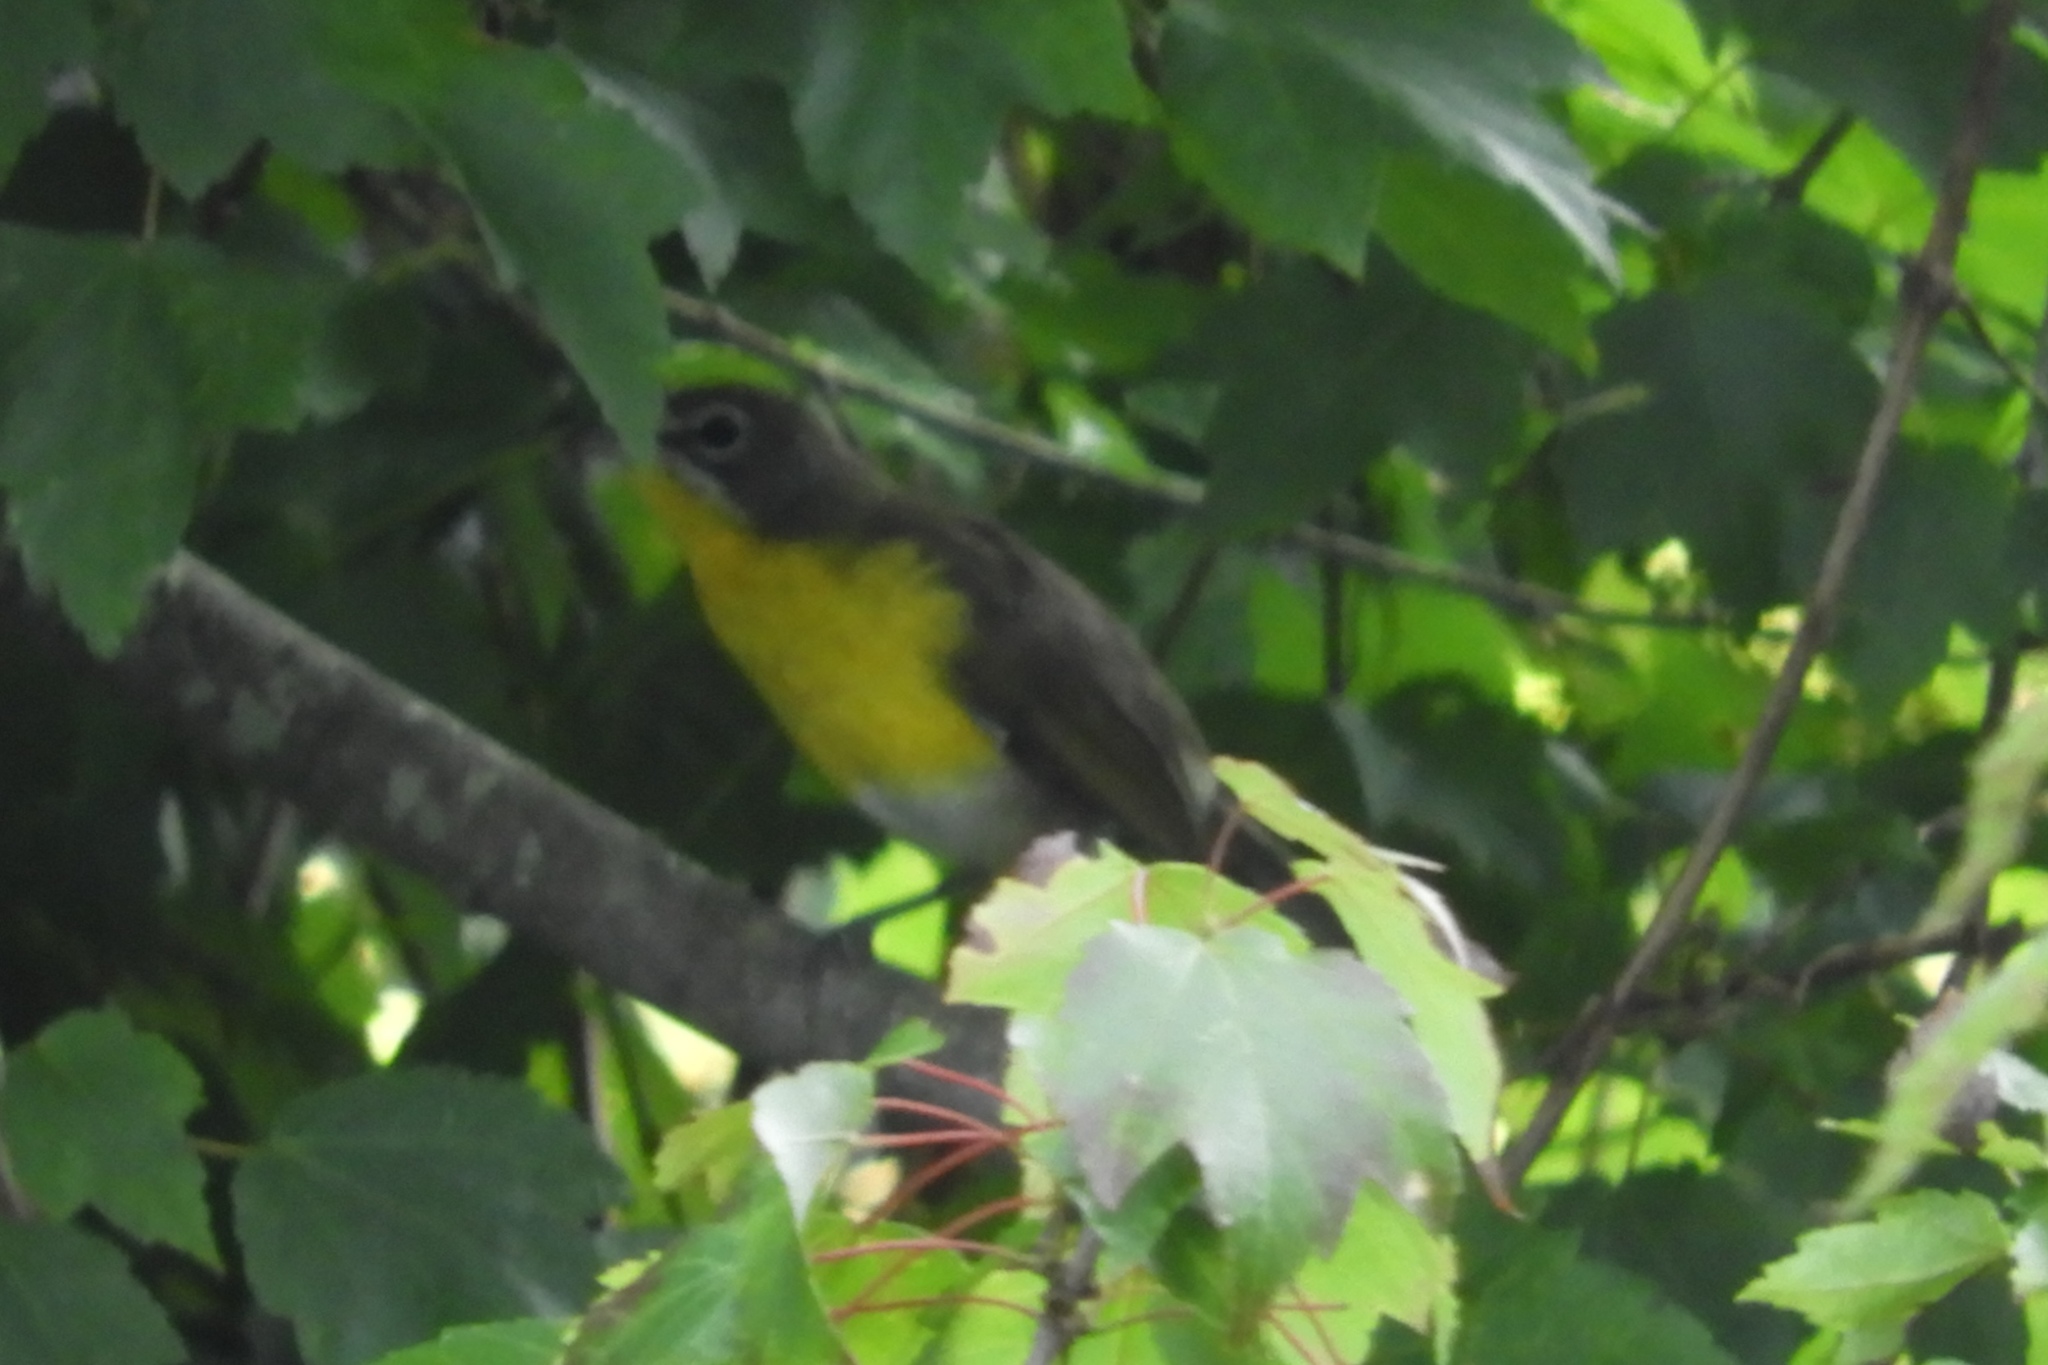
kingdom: Animalia
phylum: Chordata
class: Aves
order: Passeriformes
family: Parulidae
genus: Icteria
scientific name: Icteria virens
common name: Yellow-breasted chat
